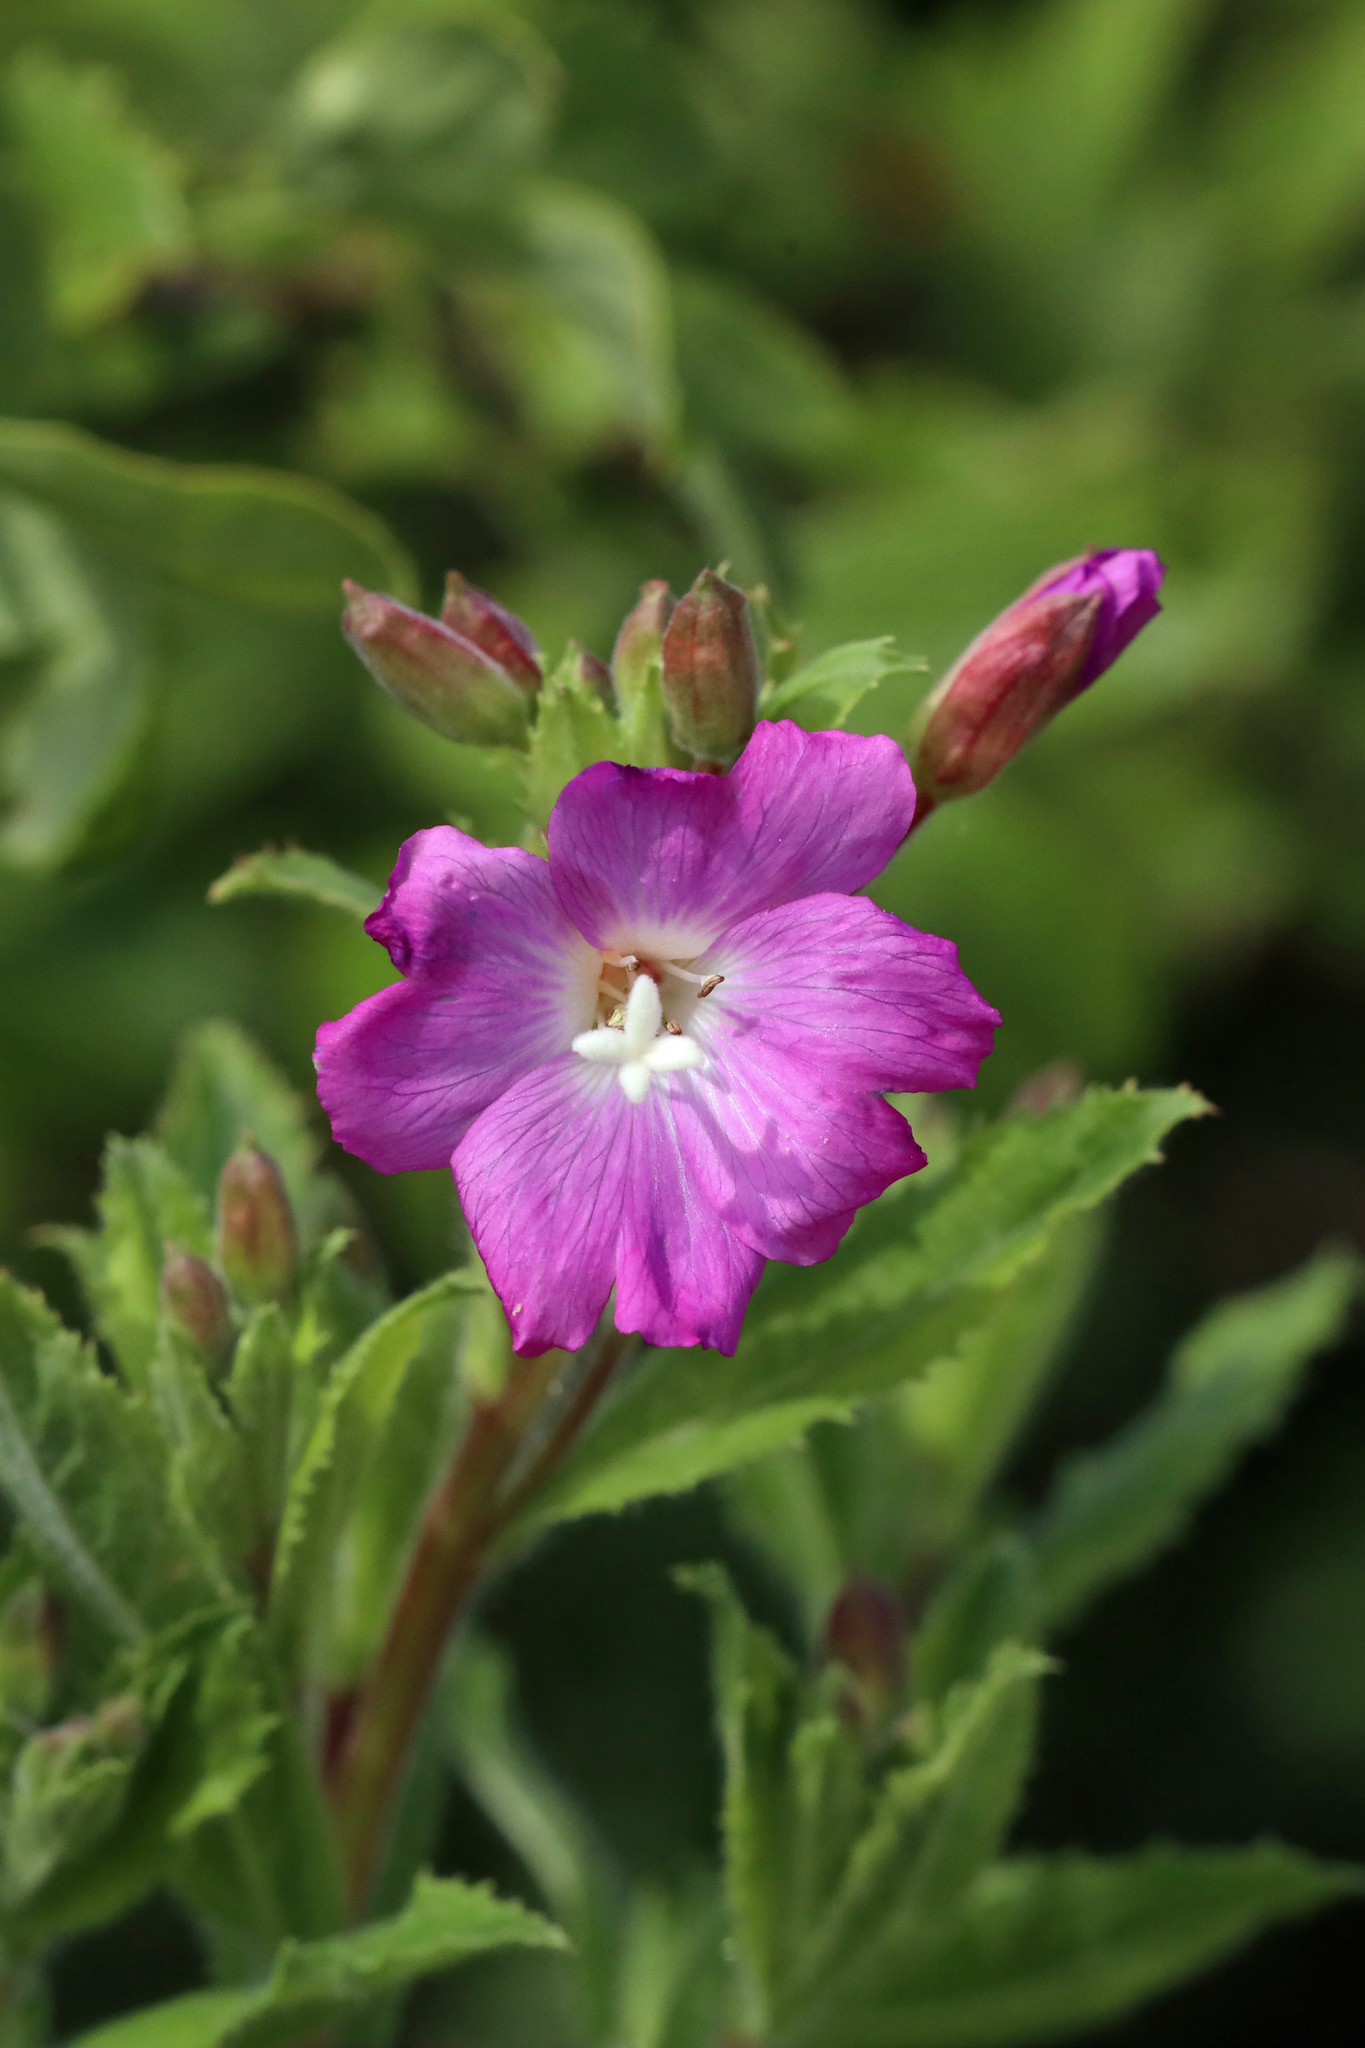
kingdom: Plantae
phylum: Tracheophyta
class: Magnoliopsida
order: Myrtales
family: Onagraceae
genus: Epilobium
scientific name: Epilobium hirsutum
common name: Great willowherb
